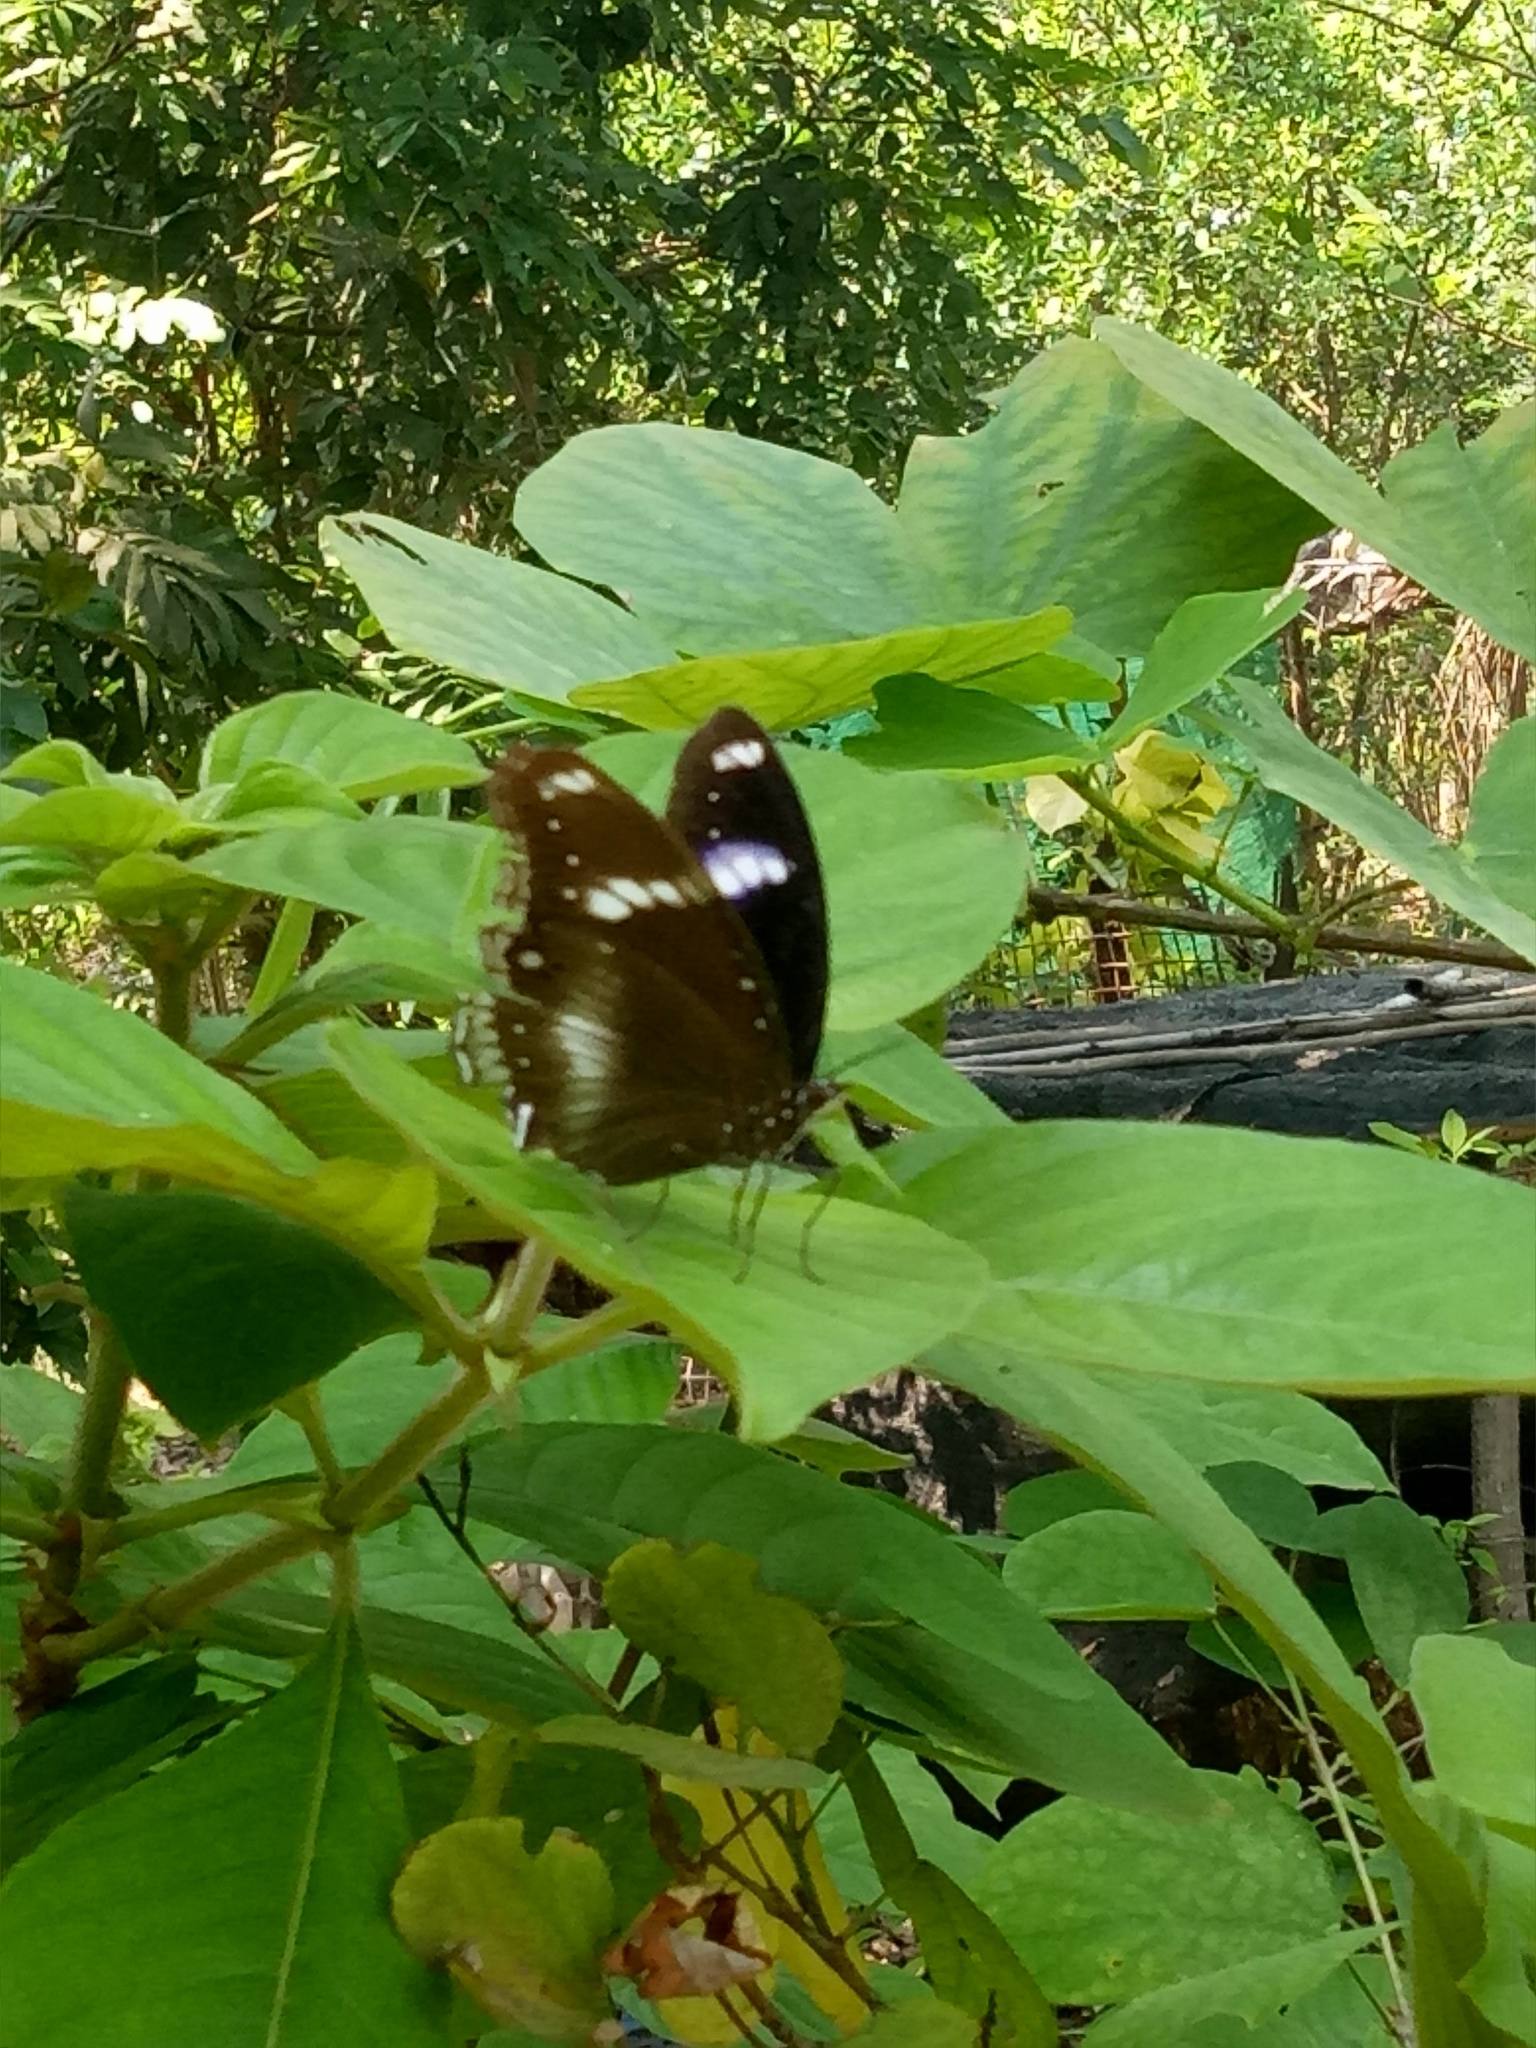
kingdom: Animalia
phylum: Arthropoda
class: Insecta
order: Lepidoptera
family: Nymphalidae
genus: Hypolimnas
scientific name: Hypolimnas bolina
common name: Great eggfly
